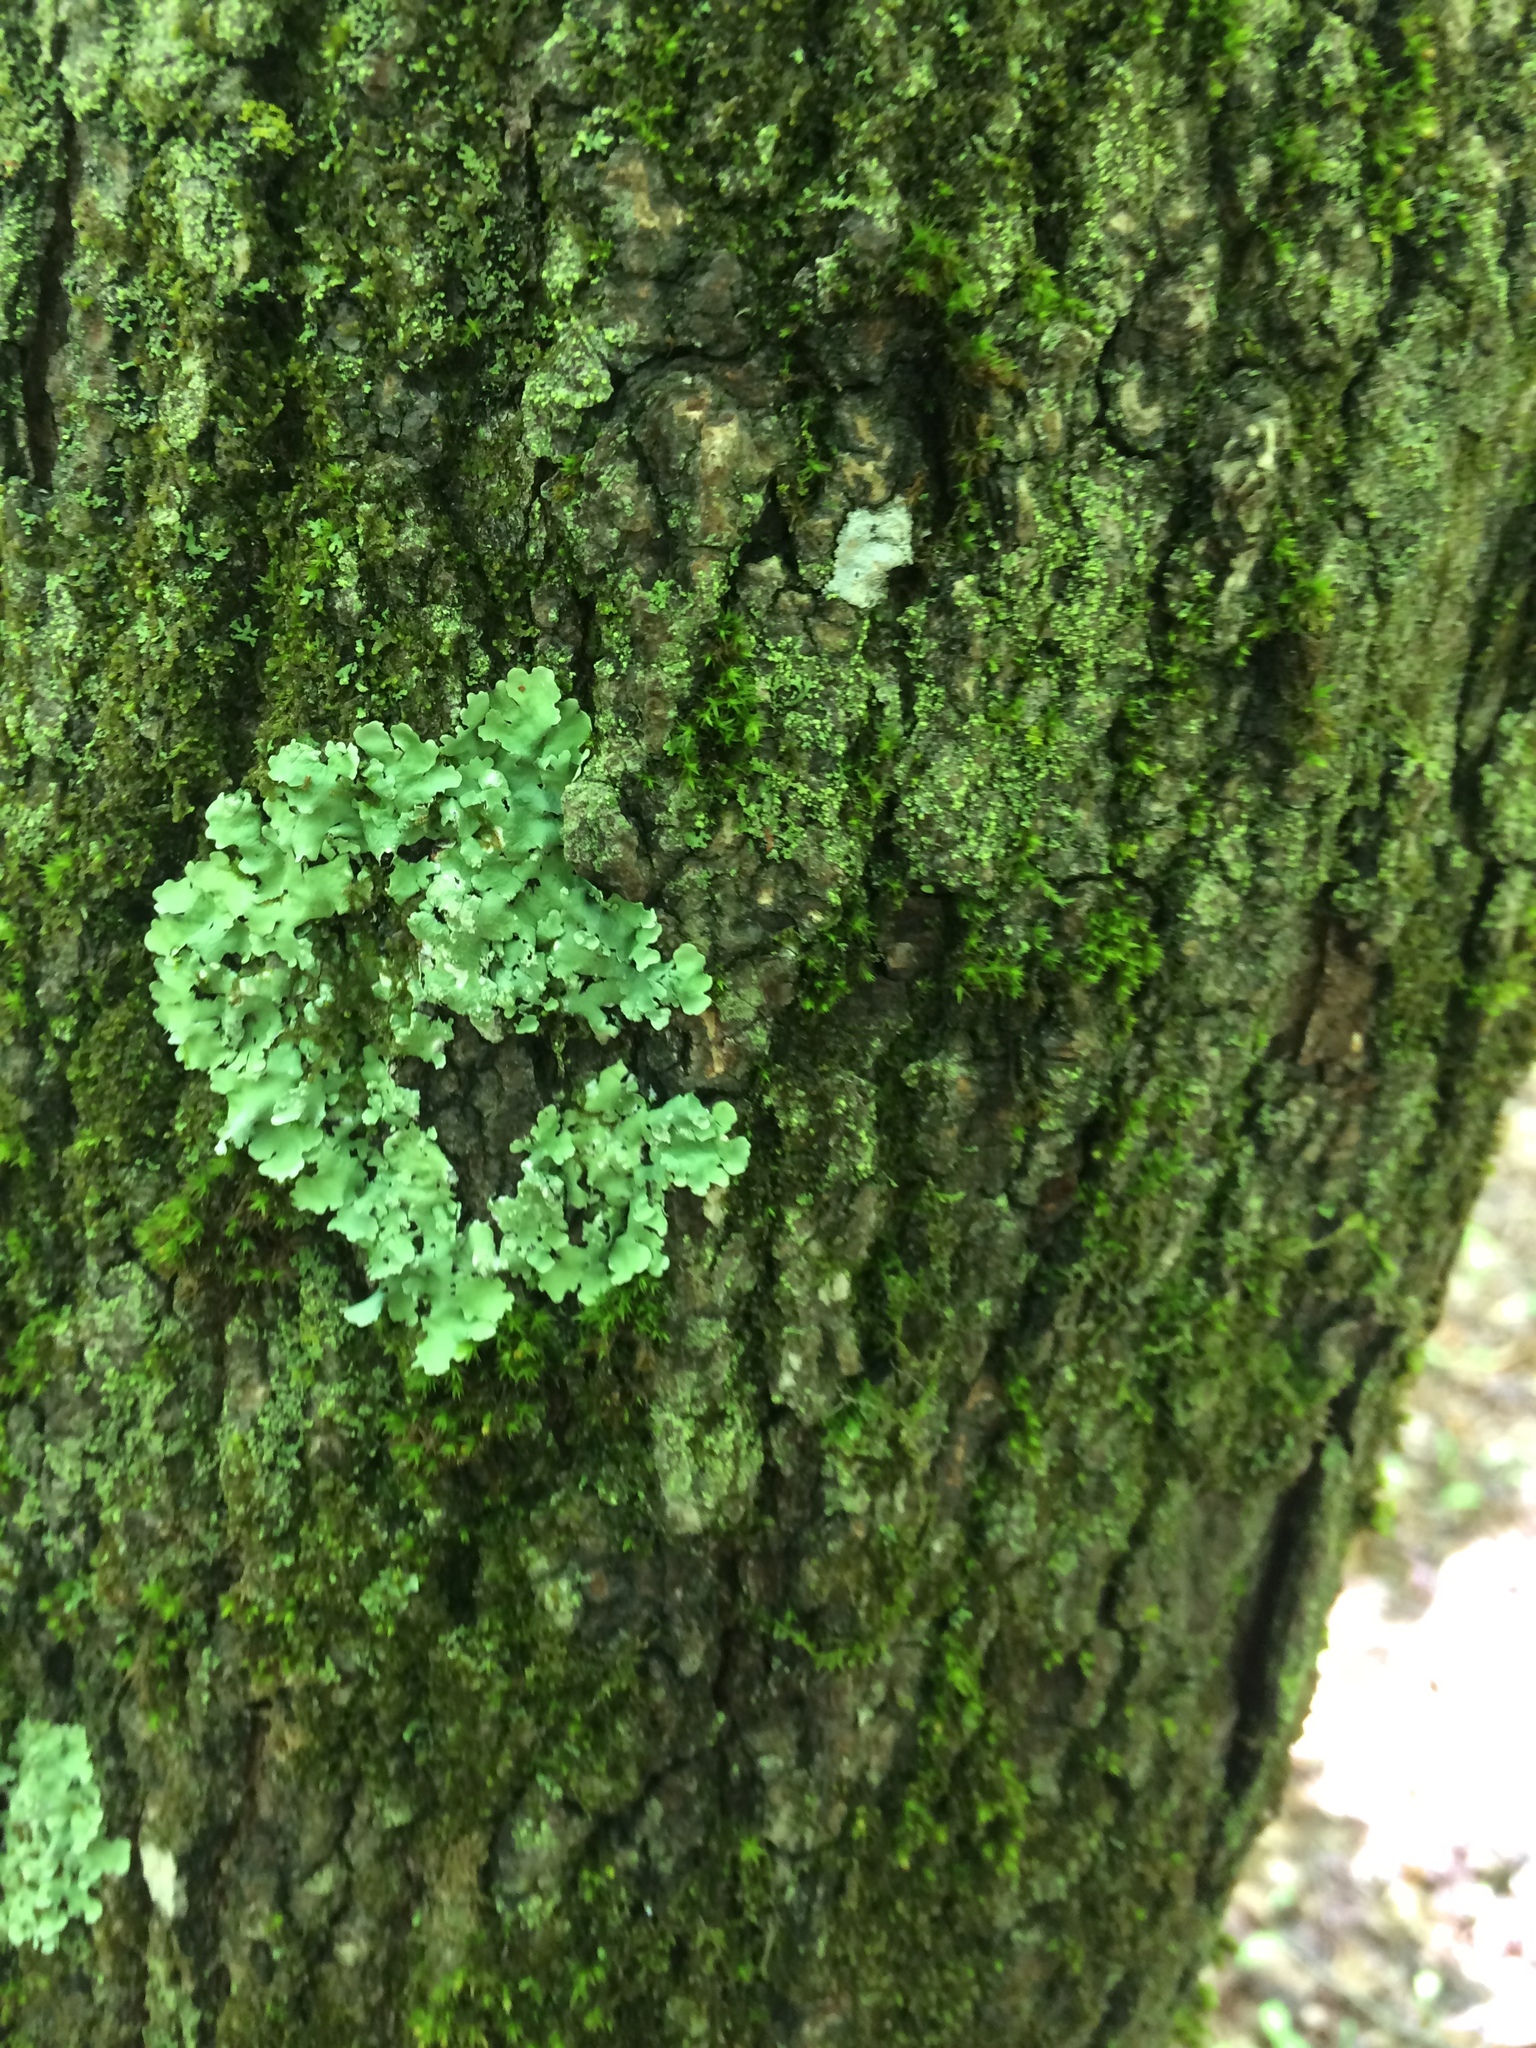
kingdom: Fungi
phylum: Ascomycota
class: Lecanoromycetes
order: Lecanorales
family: Parmeliaceae
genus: Flavoparmelia
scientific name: Flavoparmelia caperata
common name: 40-mile per hour lichen
